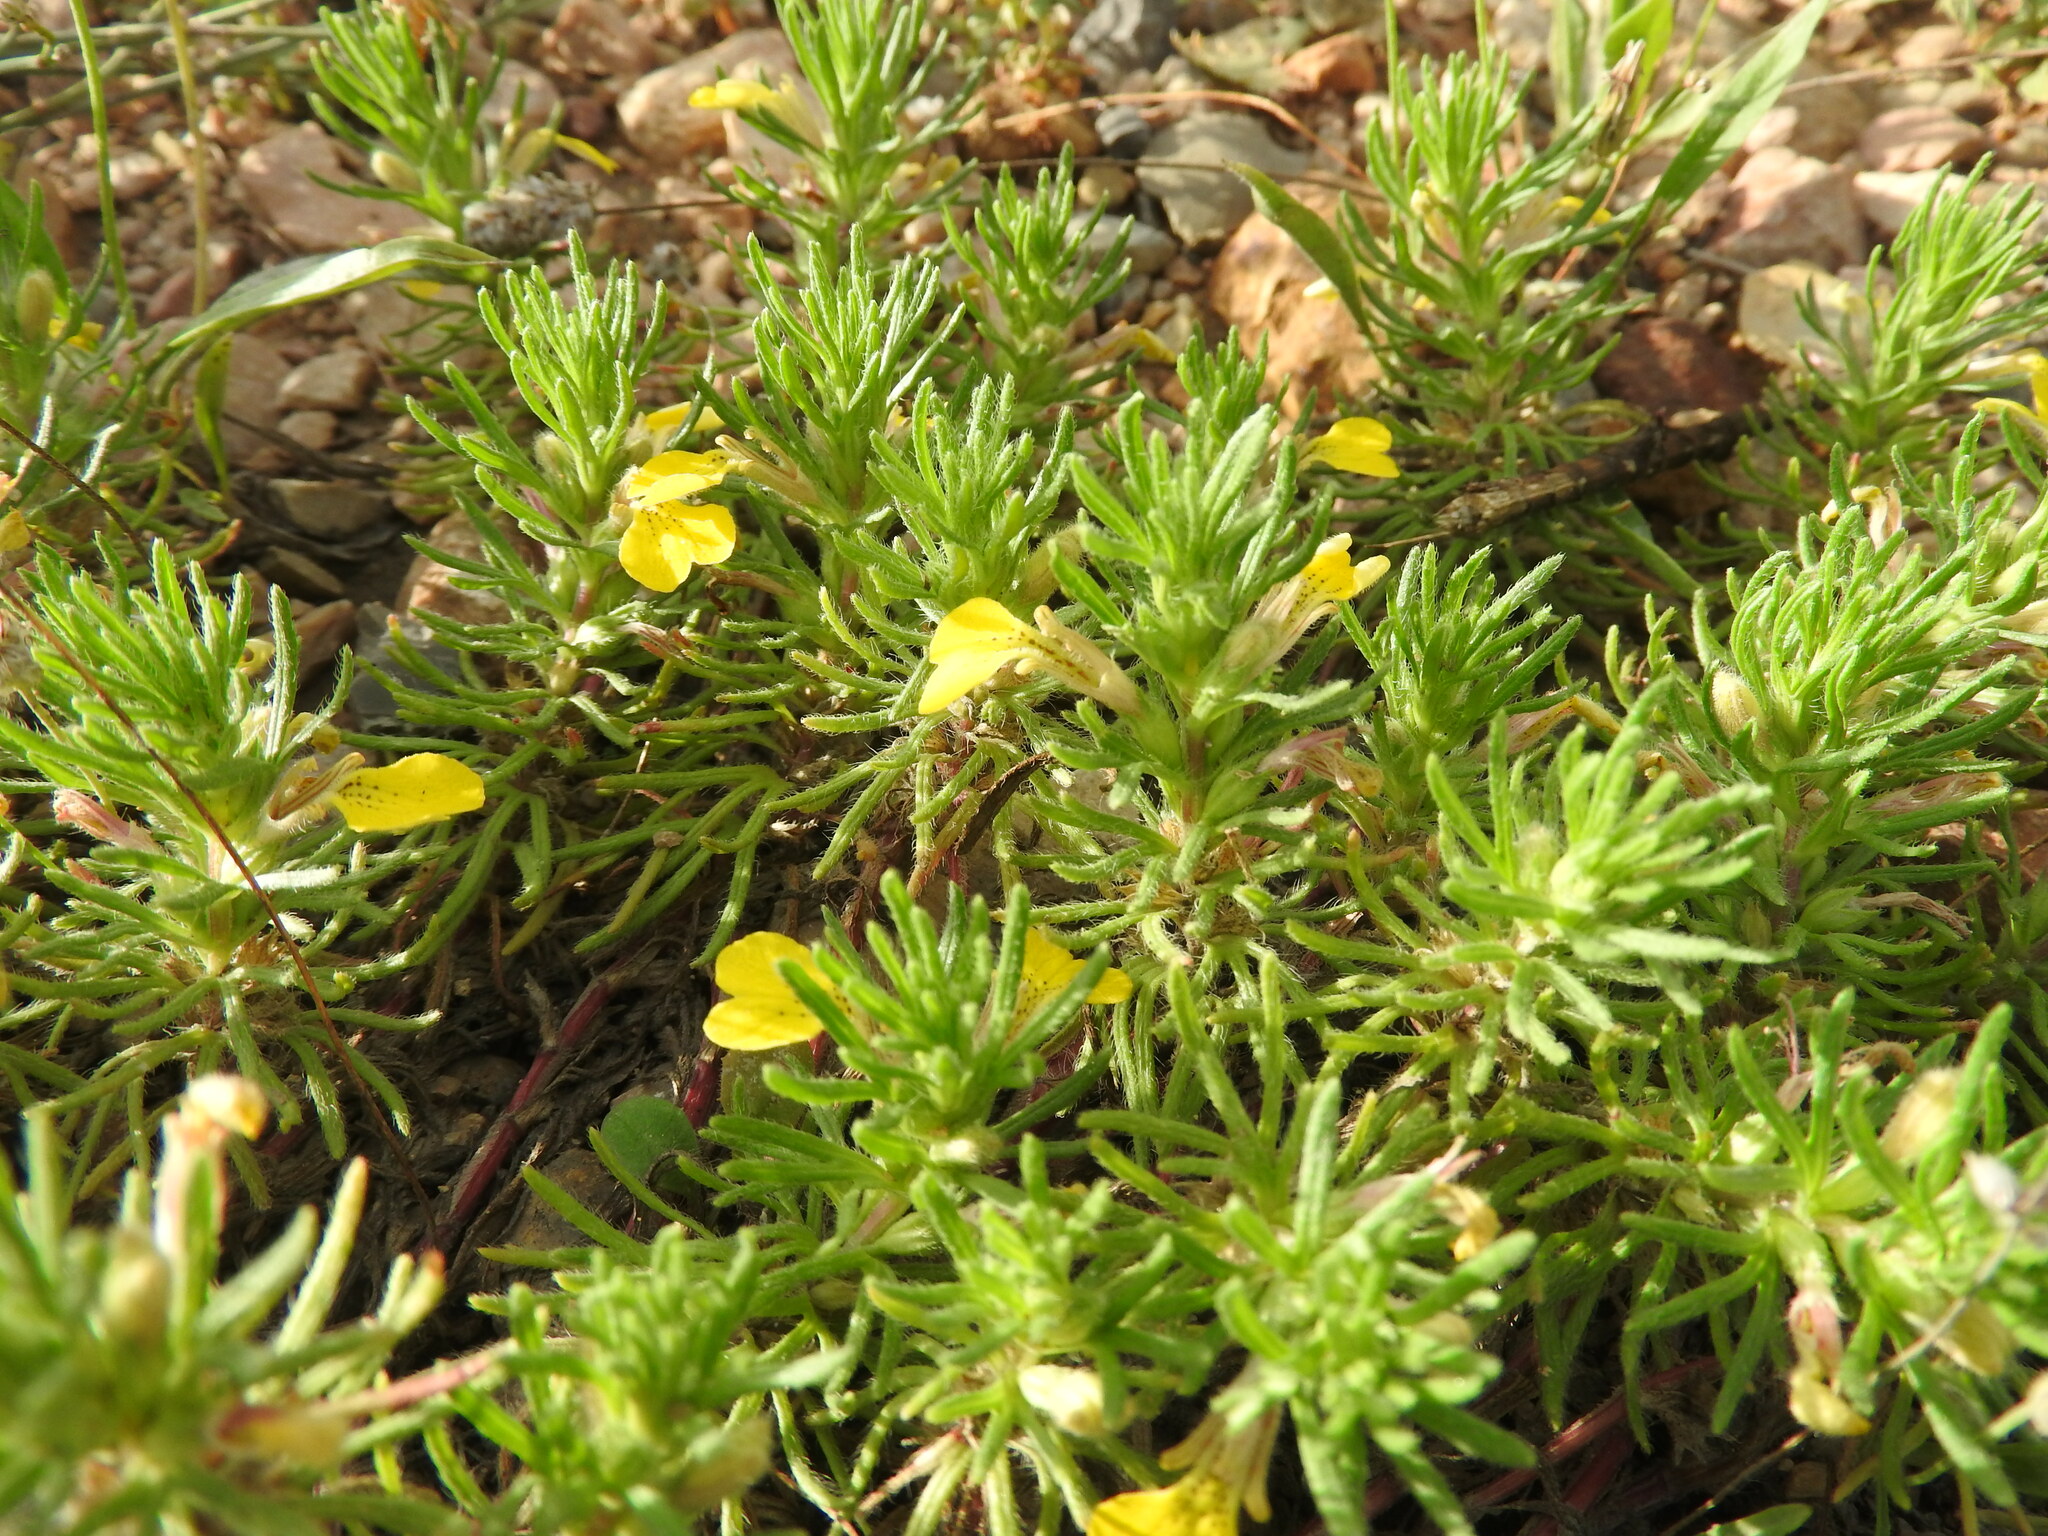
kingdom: Plantae
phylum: Tracheophyta
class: Magnoliopsida
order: Lamiales
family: Lamiaceae
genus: Ajuga
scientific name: Ajuga chamaepitys
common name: Ground-pine
